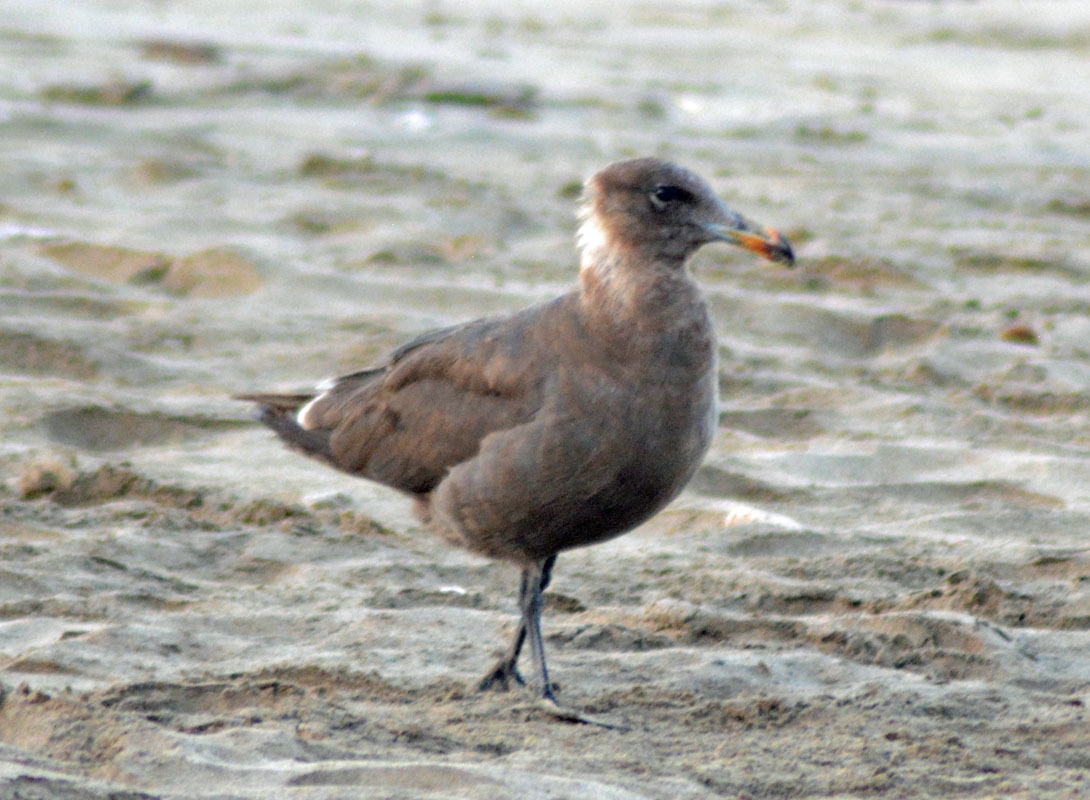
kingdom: Animalia
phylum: Chordata
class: Aves
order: Charadriiformes
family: Laridae
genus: Larus
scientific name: Larus heermanni
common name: Heermann's gull
